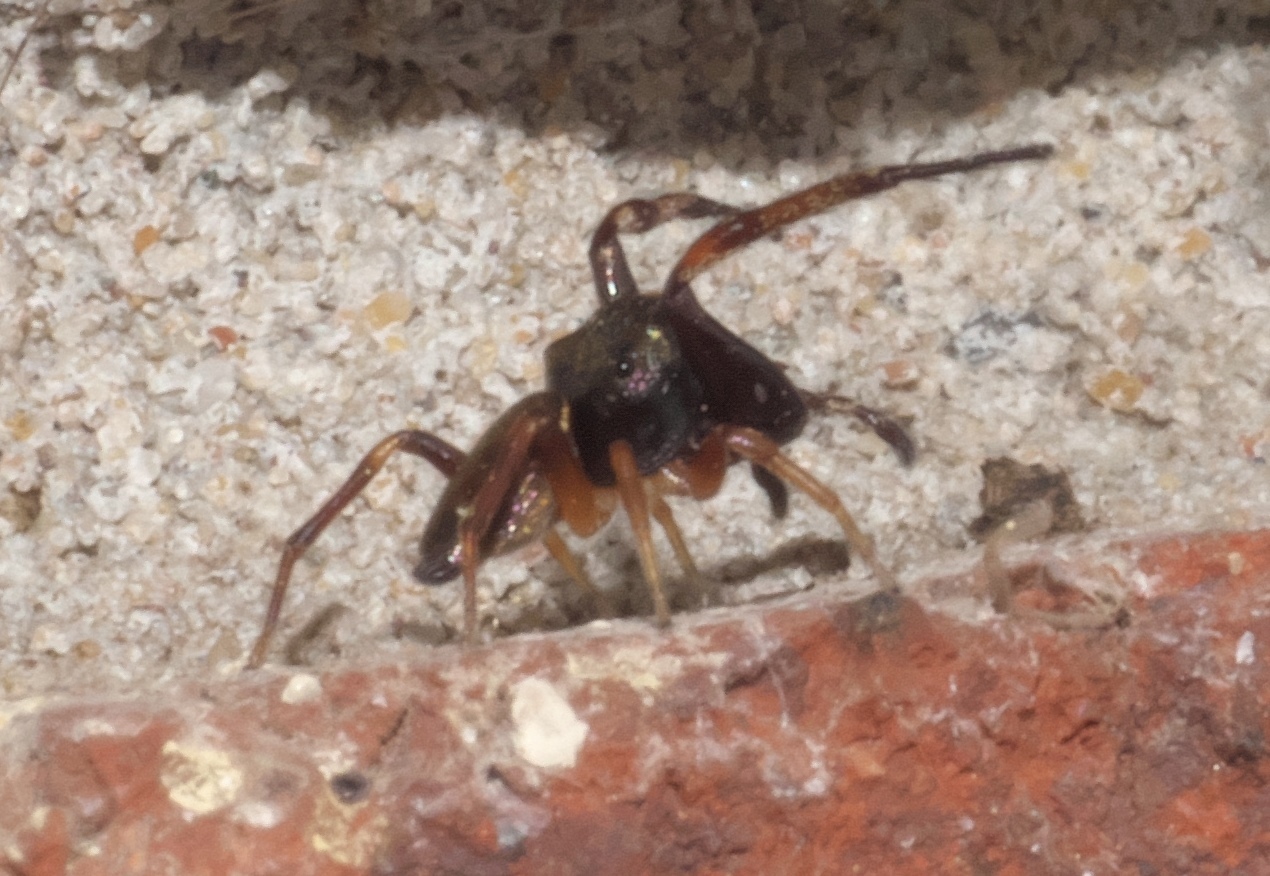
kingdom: Animalia
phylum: Arthropoda
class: Arachnida
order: Araneae
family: Salticidae
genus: Zygoballus
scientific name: Zygoballus rufipes
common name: Jumping spiders
